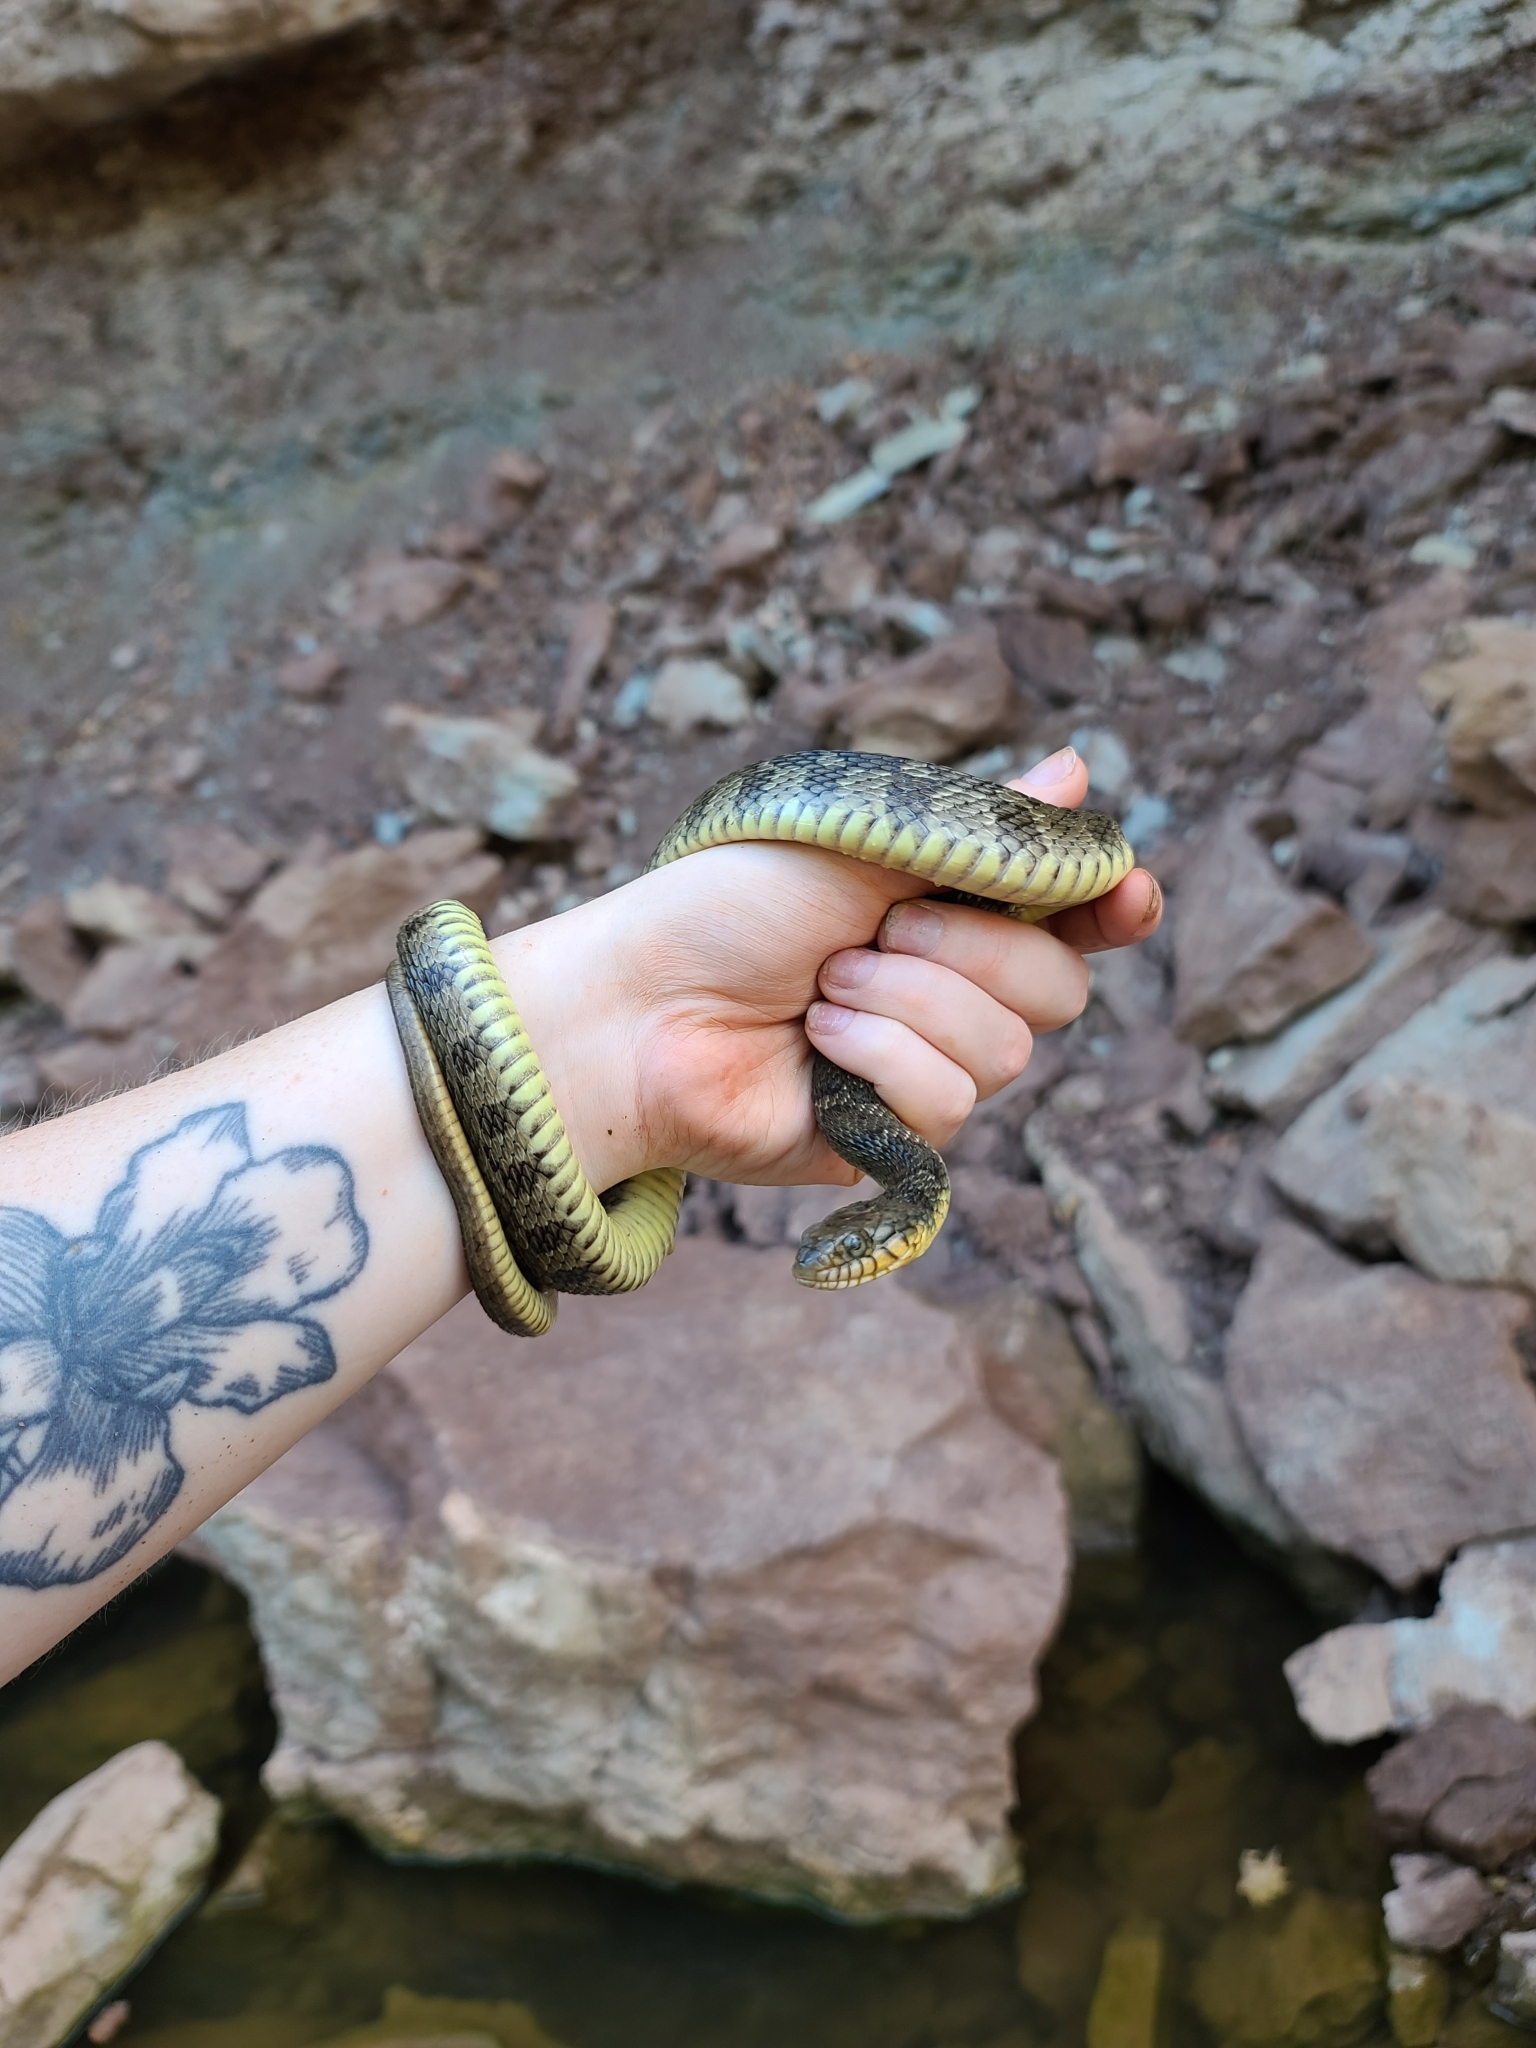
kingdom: Animalia
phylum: Chordata
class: Squamata
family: Colubridae
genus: Nerodia
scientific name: Nerodia erythrogaster
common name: Plainbelly water snake
